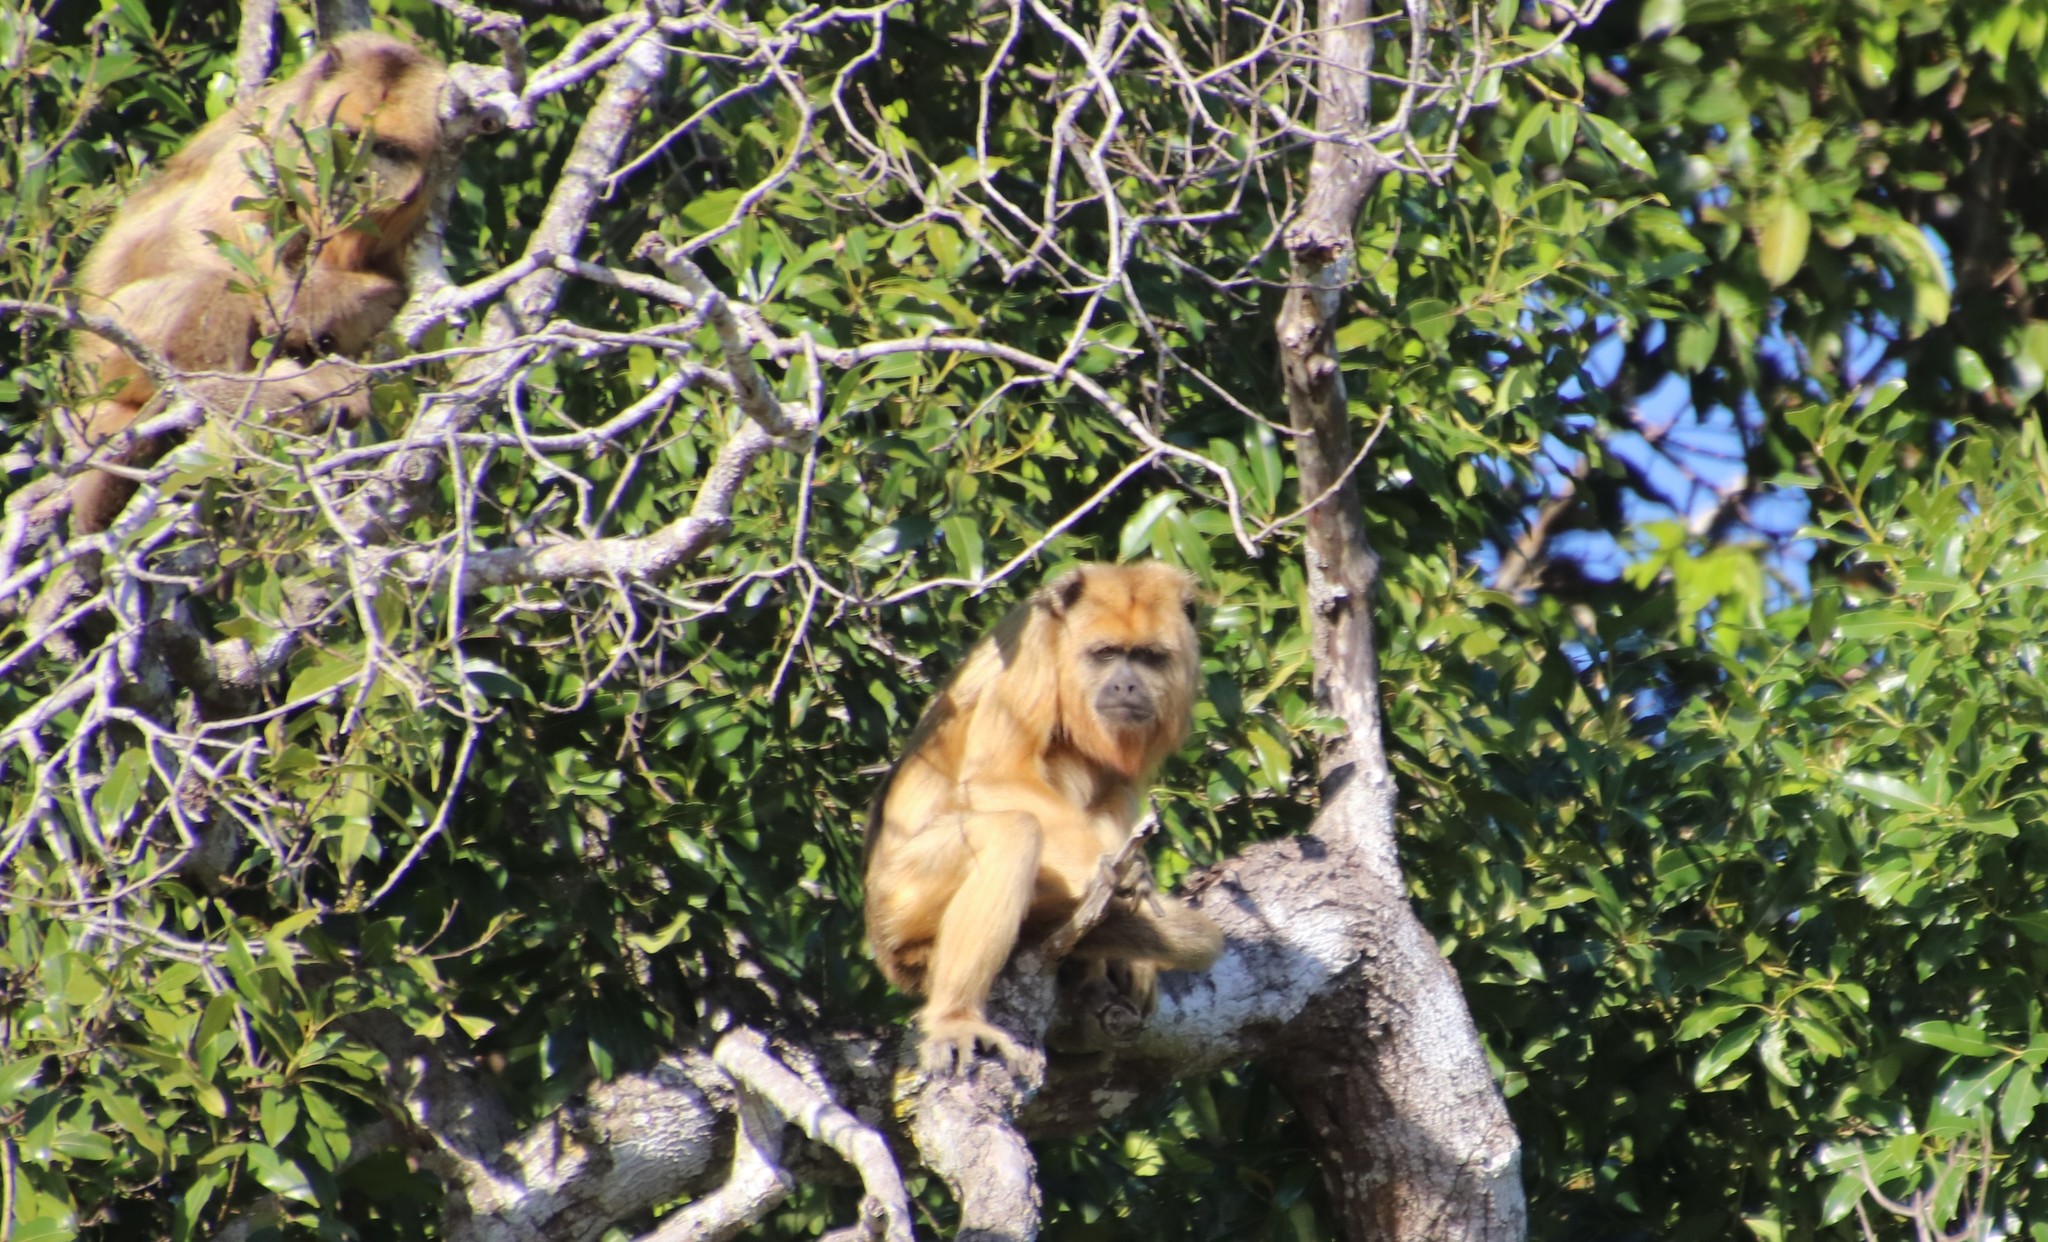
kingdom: Animalia
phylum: Chordata
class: Mammalia
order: Primates
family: Atelidae
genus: Alouatta
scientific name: Alouatta caraya
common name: Black howler
